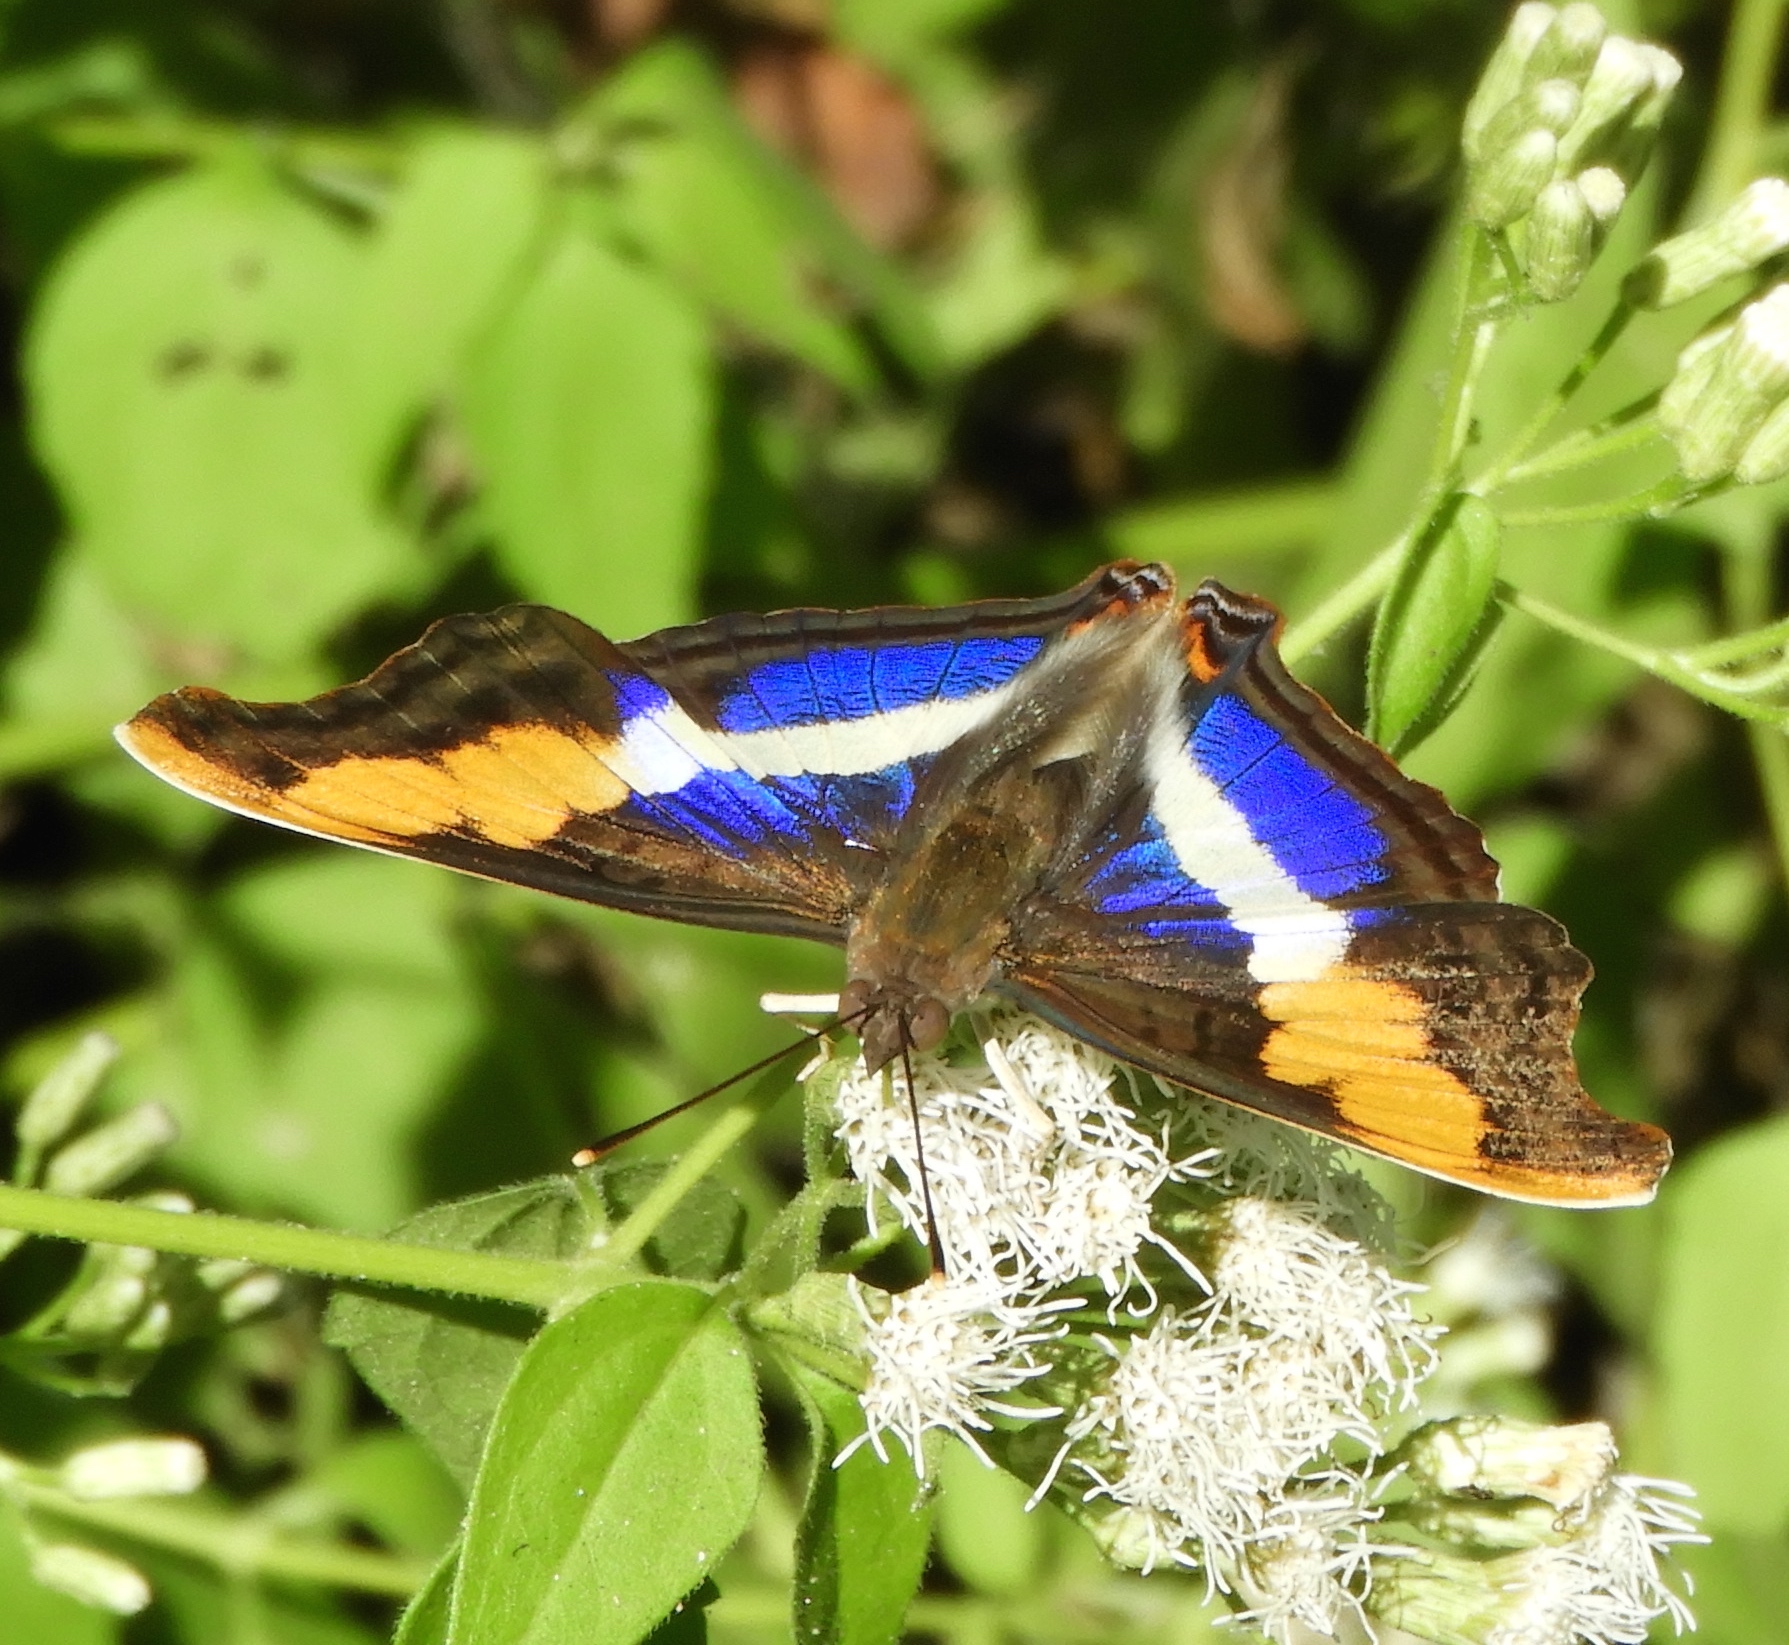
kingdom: Animalia
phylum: Arthropoda
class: Insecta
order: Lepidoptera
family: Nymphalidae
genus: Doxocopa
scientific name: Doxocopa laure
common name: Silver emperor
